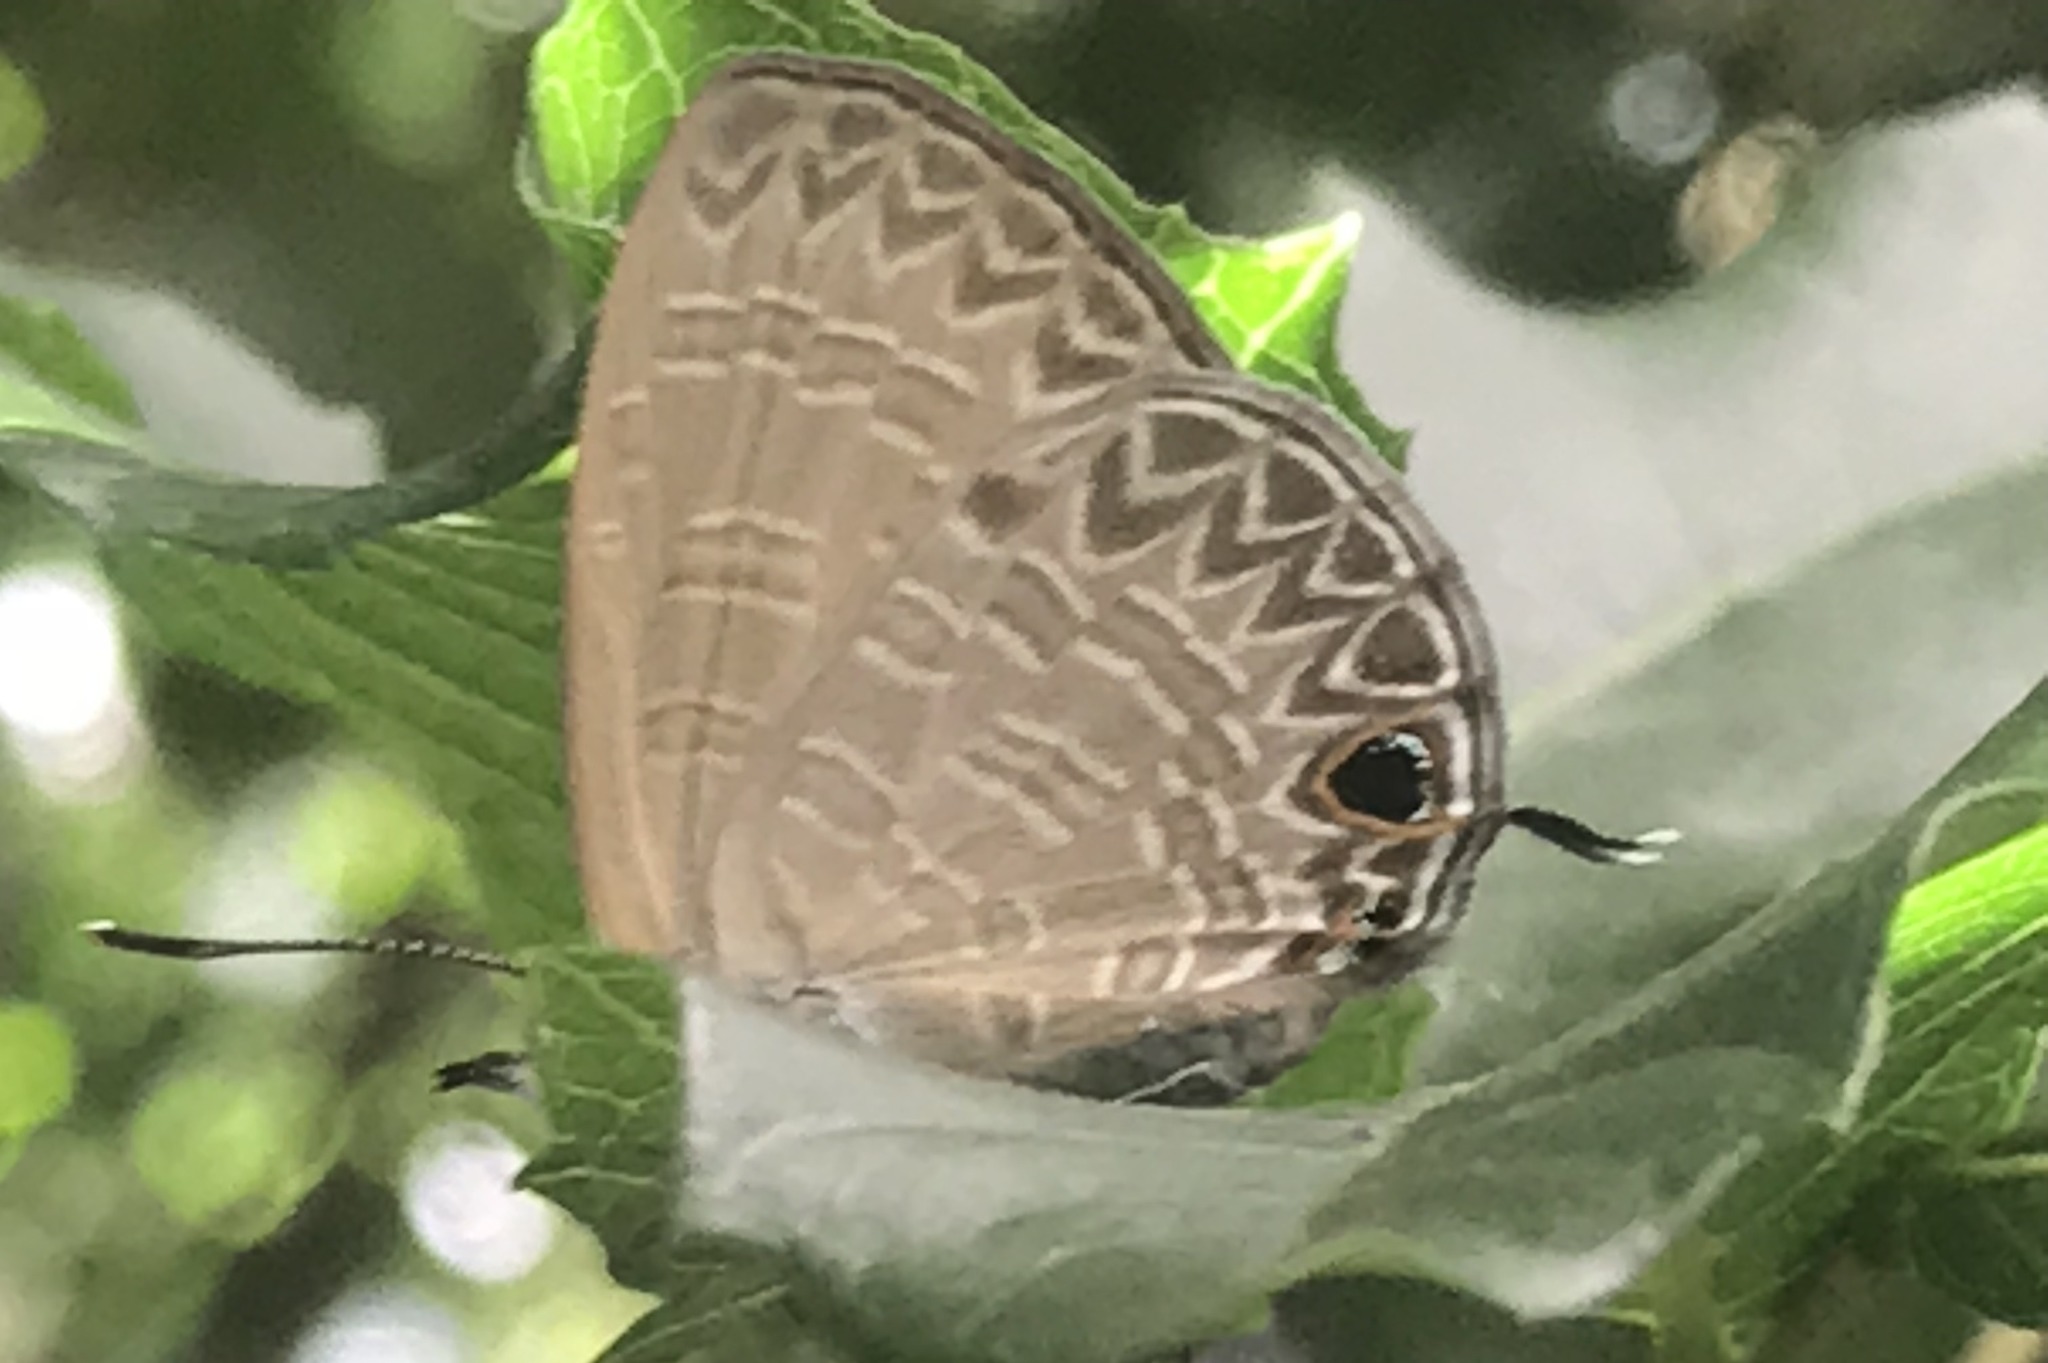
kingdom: Animalia
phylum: Arthropoda
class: Insecta
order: Lepidoptera
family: Lycaenidae
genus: Nacaduba
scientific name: Nacaduba berenice
